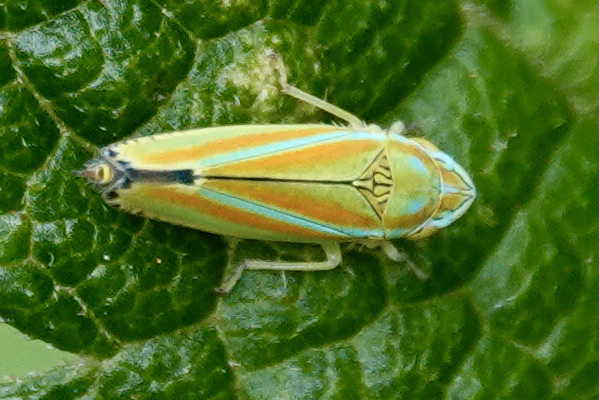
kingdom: Animalia
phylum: Arthropoda
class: Insecta
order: Hemiptera
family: Cicadellidae
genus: Graphocephala
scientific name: Graphocephala versuta
